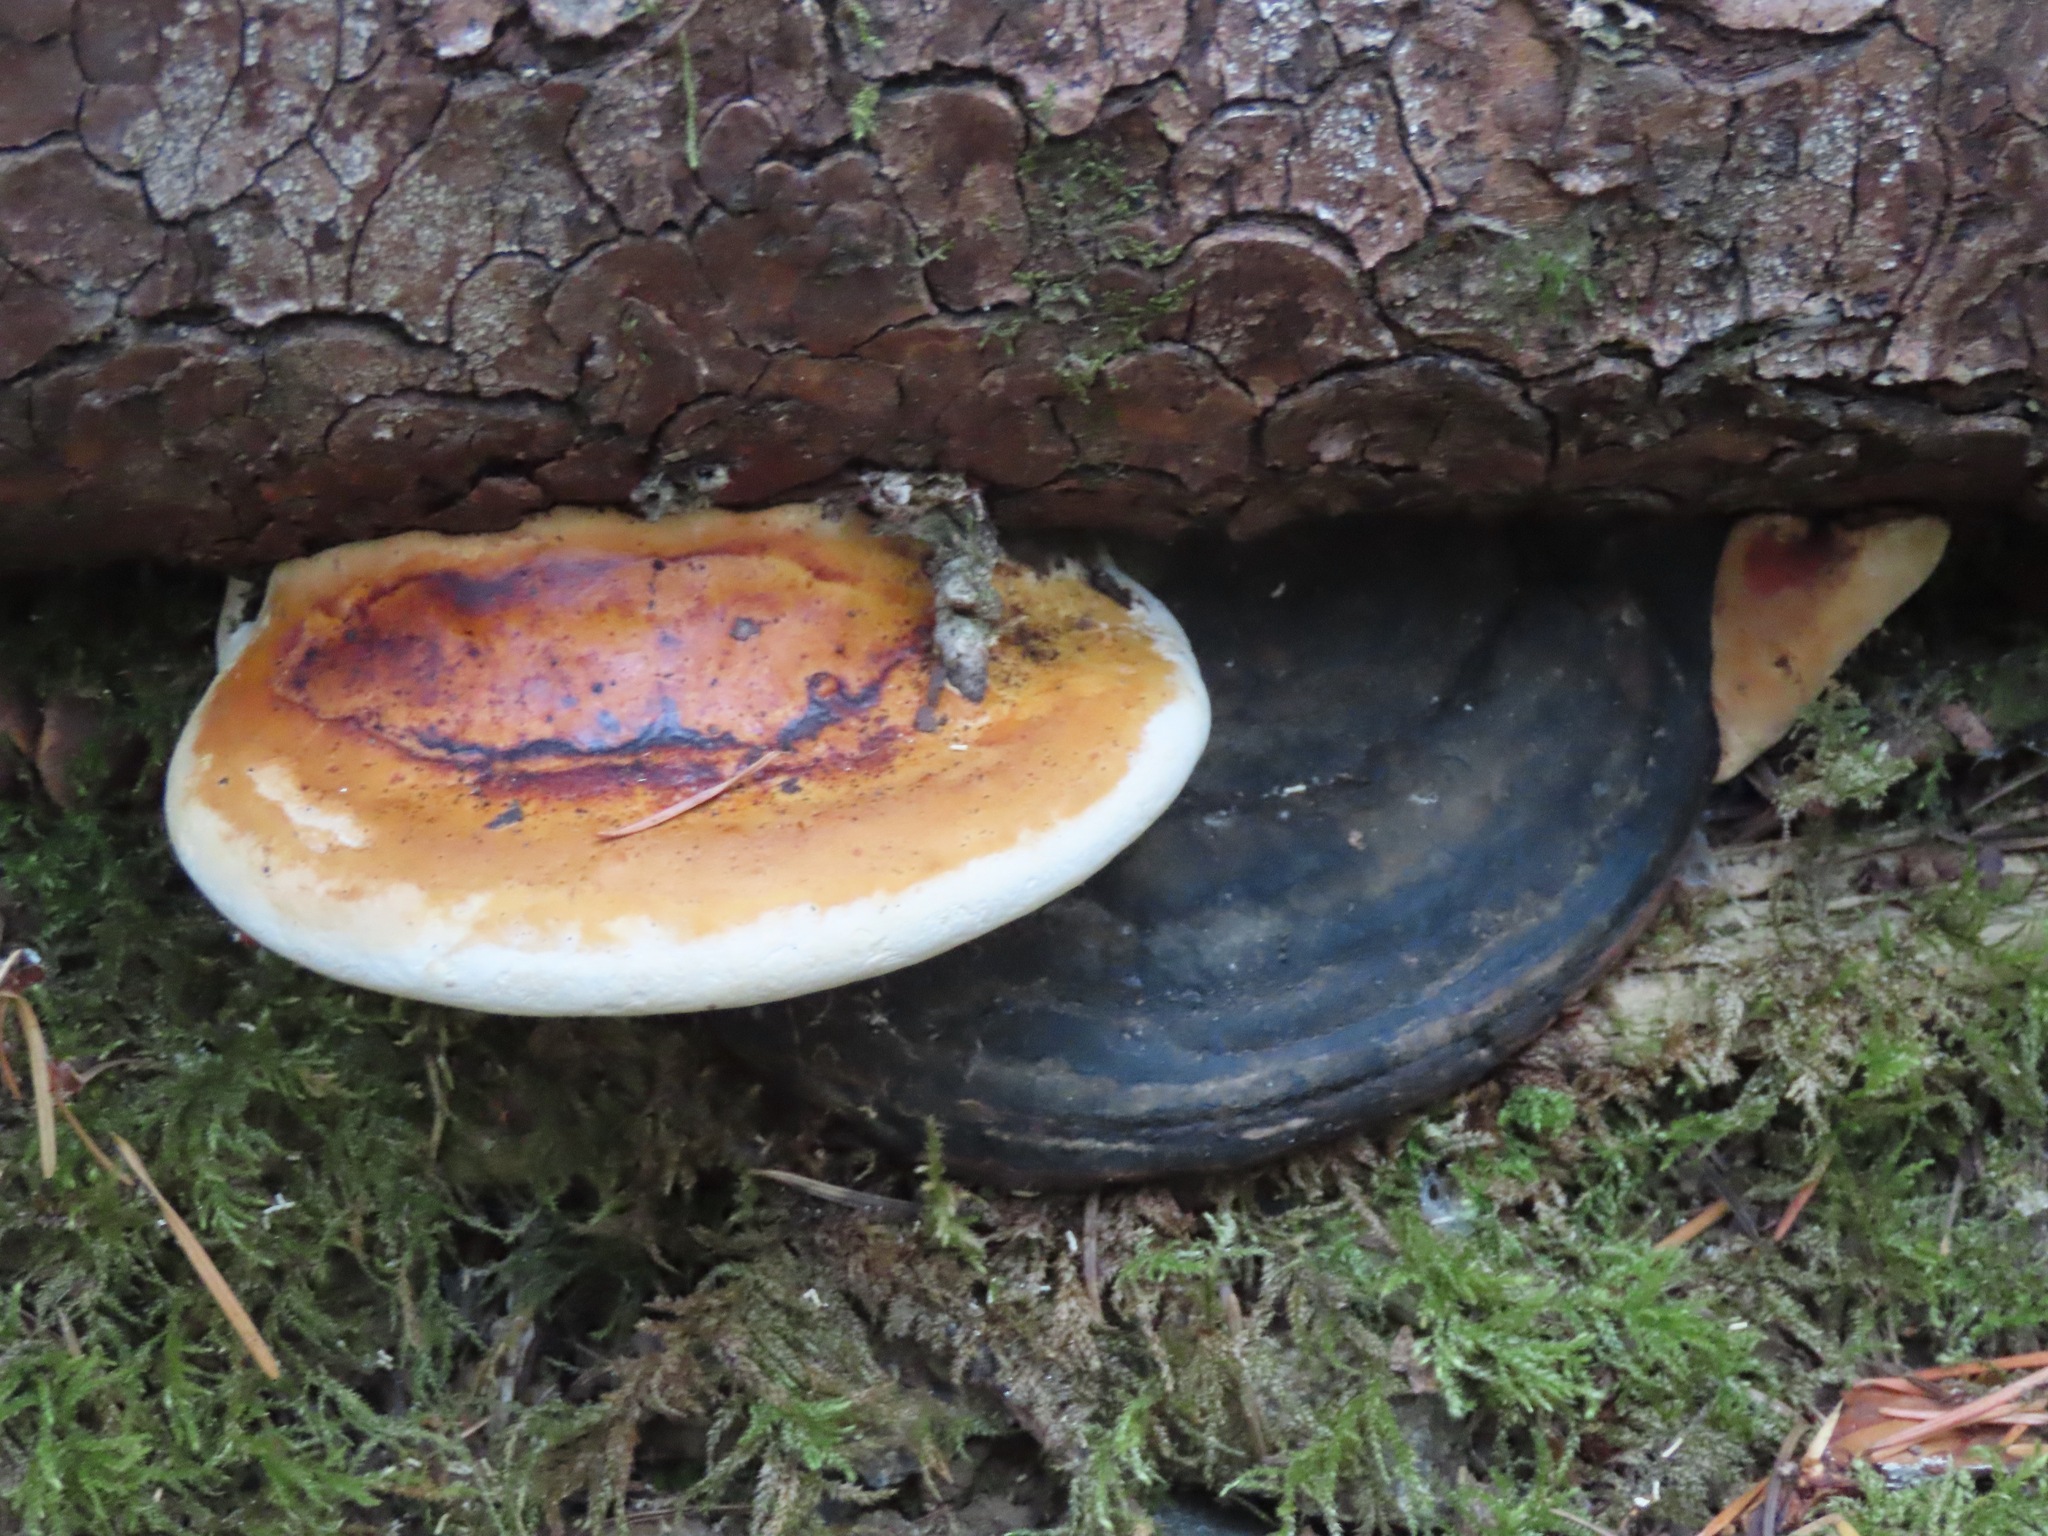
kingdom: Fungi
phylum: Basidiomycota
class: Agaricomycetes
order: Polyporales
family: Fomitopsidaceae
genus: Fomitopsis
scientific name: Fomitopsis mounceae
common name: Northern red belt
